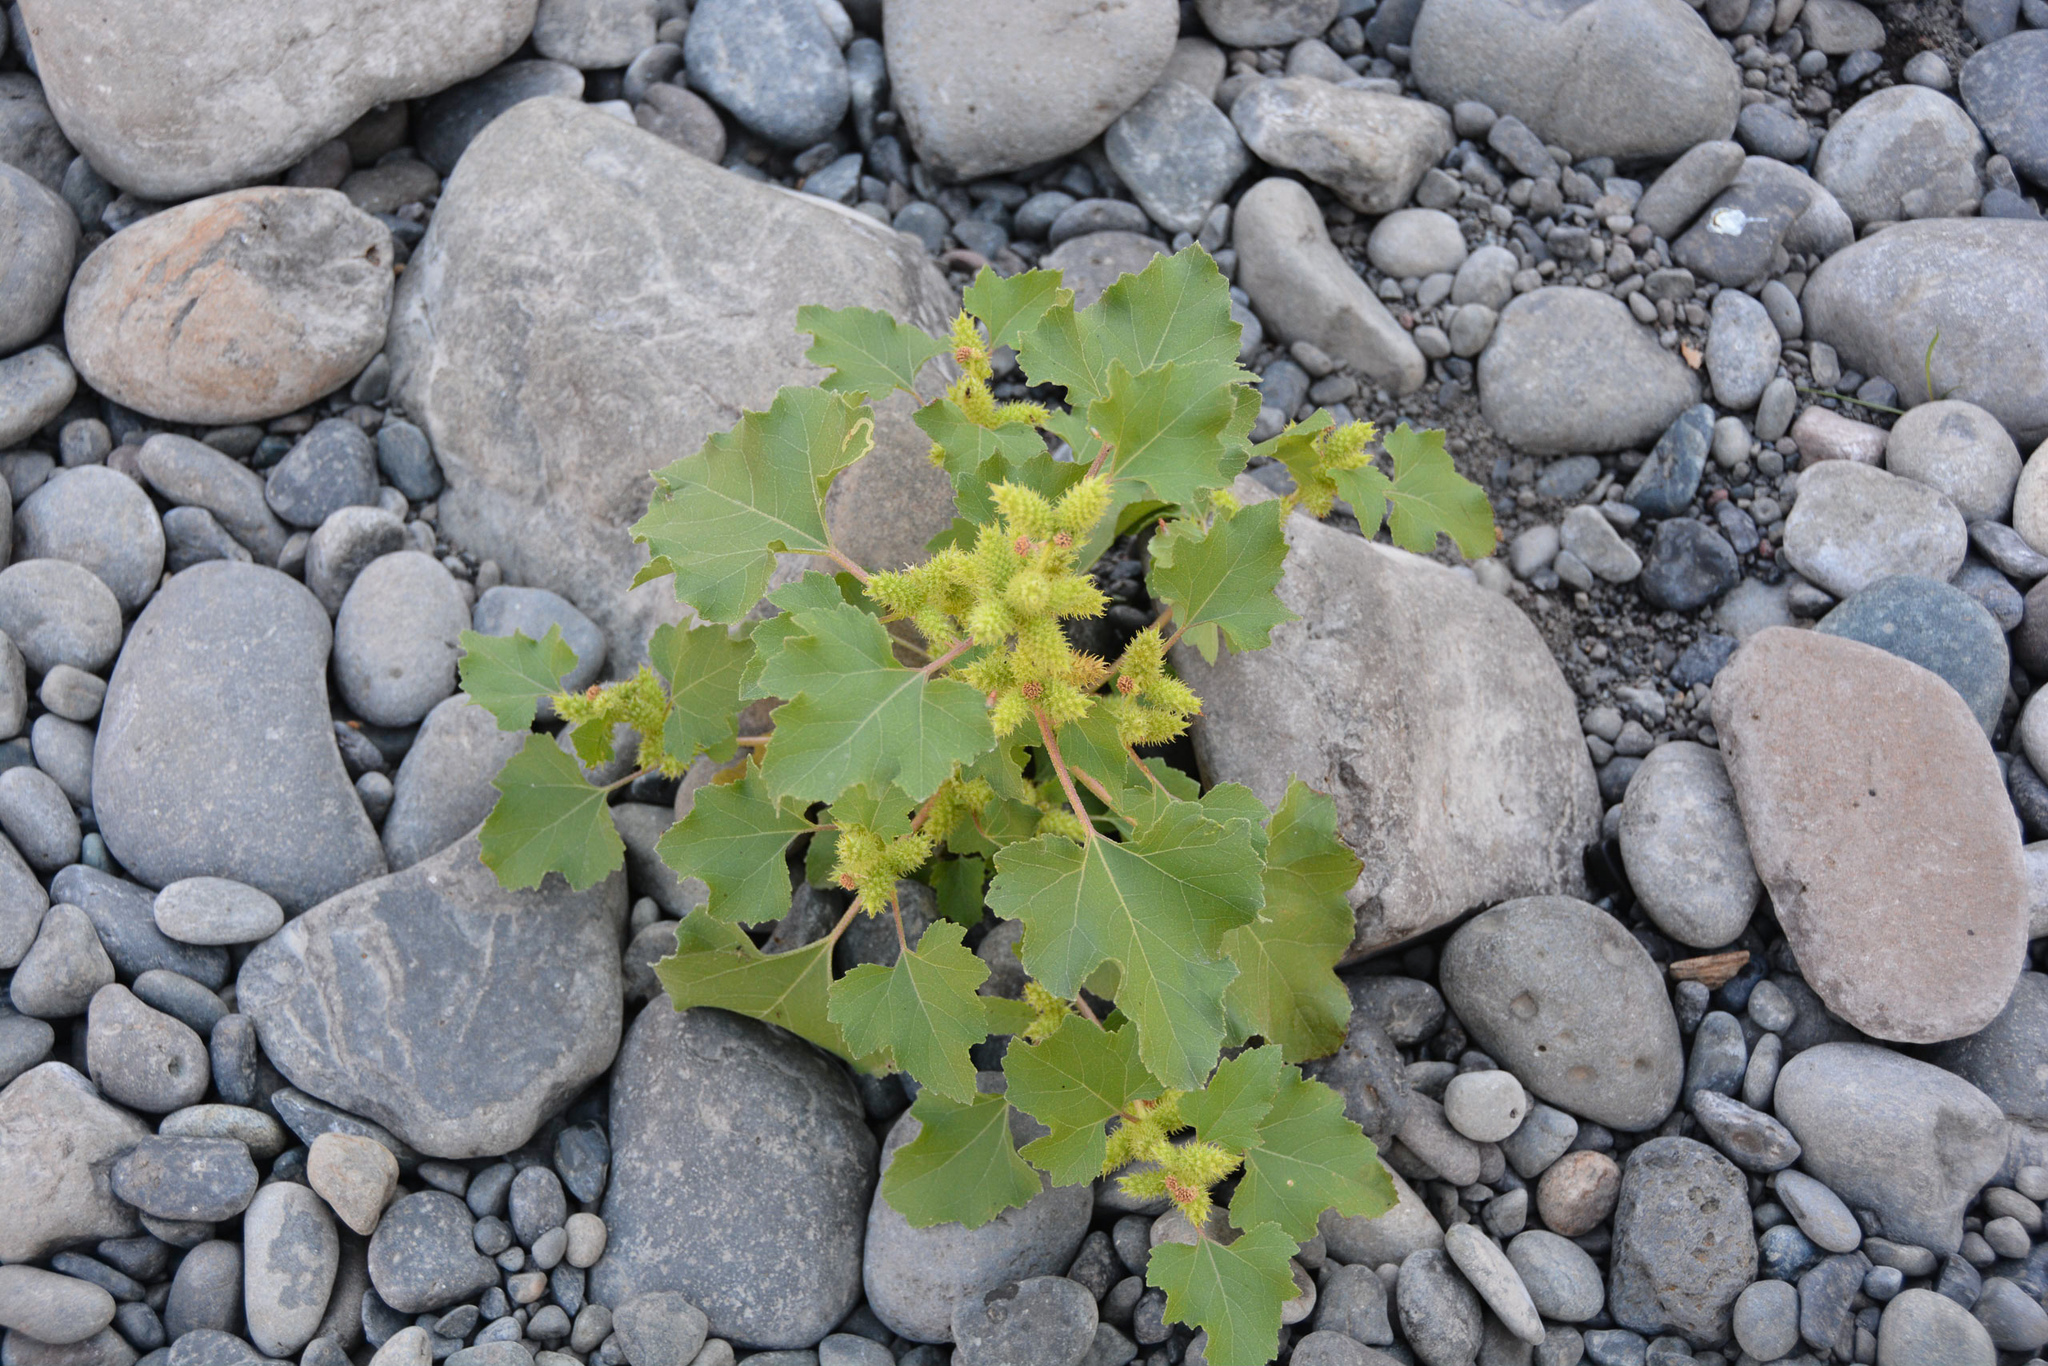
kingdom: Plantae
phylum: Tracheophyta
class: Magnoliopsida
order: Asterales
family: Asteraceae
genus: Xanthium
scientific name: Xanthium strumarium
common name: Rough cocklebur
